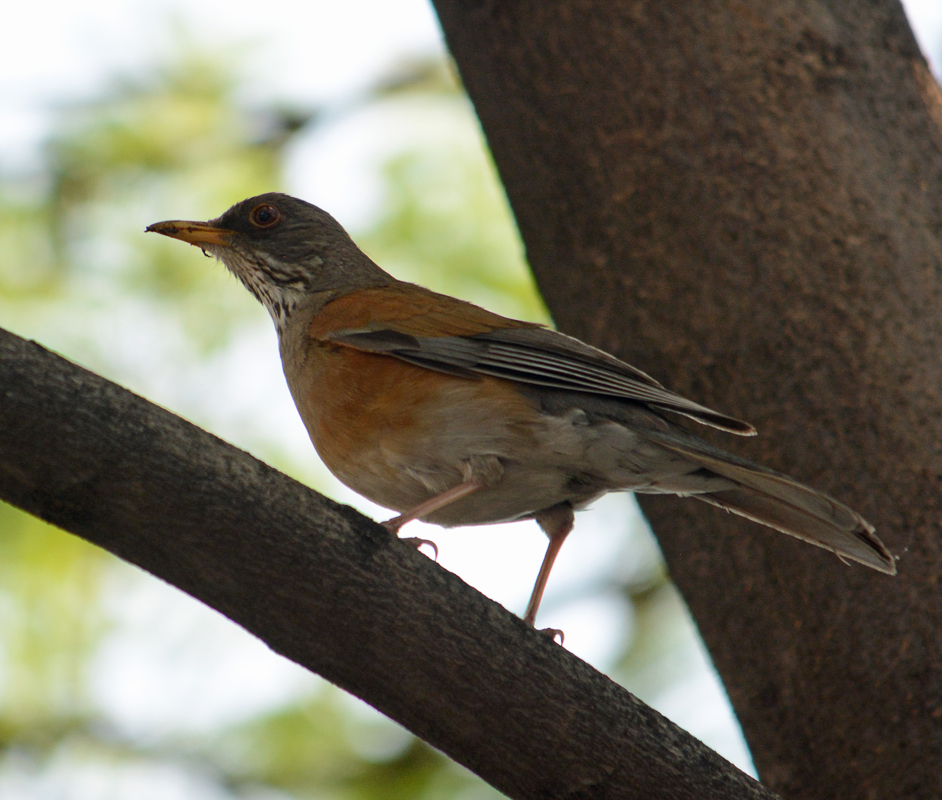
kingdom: Animalia
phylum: Chordata
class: Aves
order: Passeriformes
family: Turdidae
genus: Turdus
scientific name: Turdus rufopalliatus
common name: Rufous-backed robin
